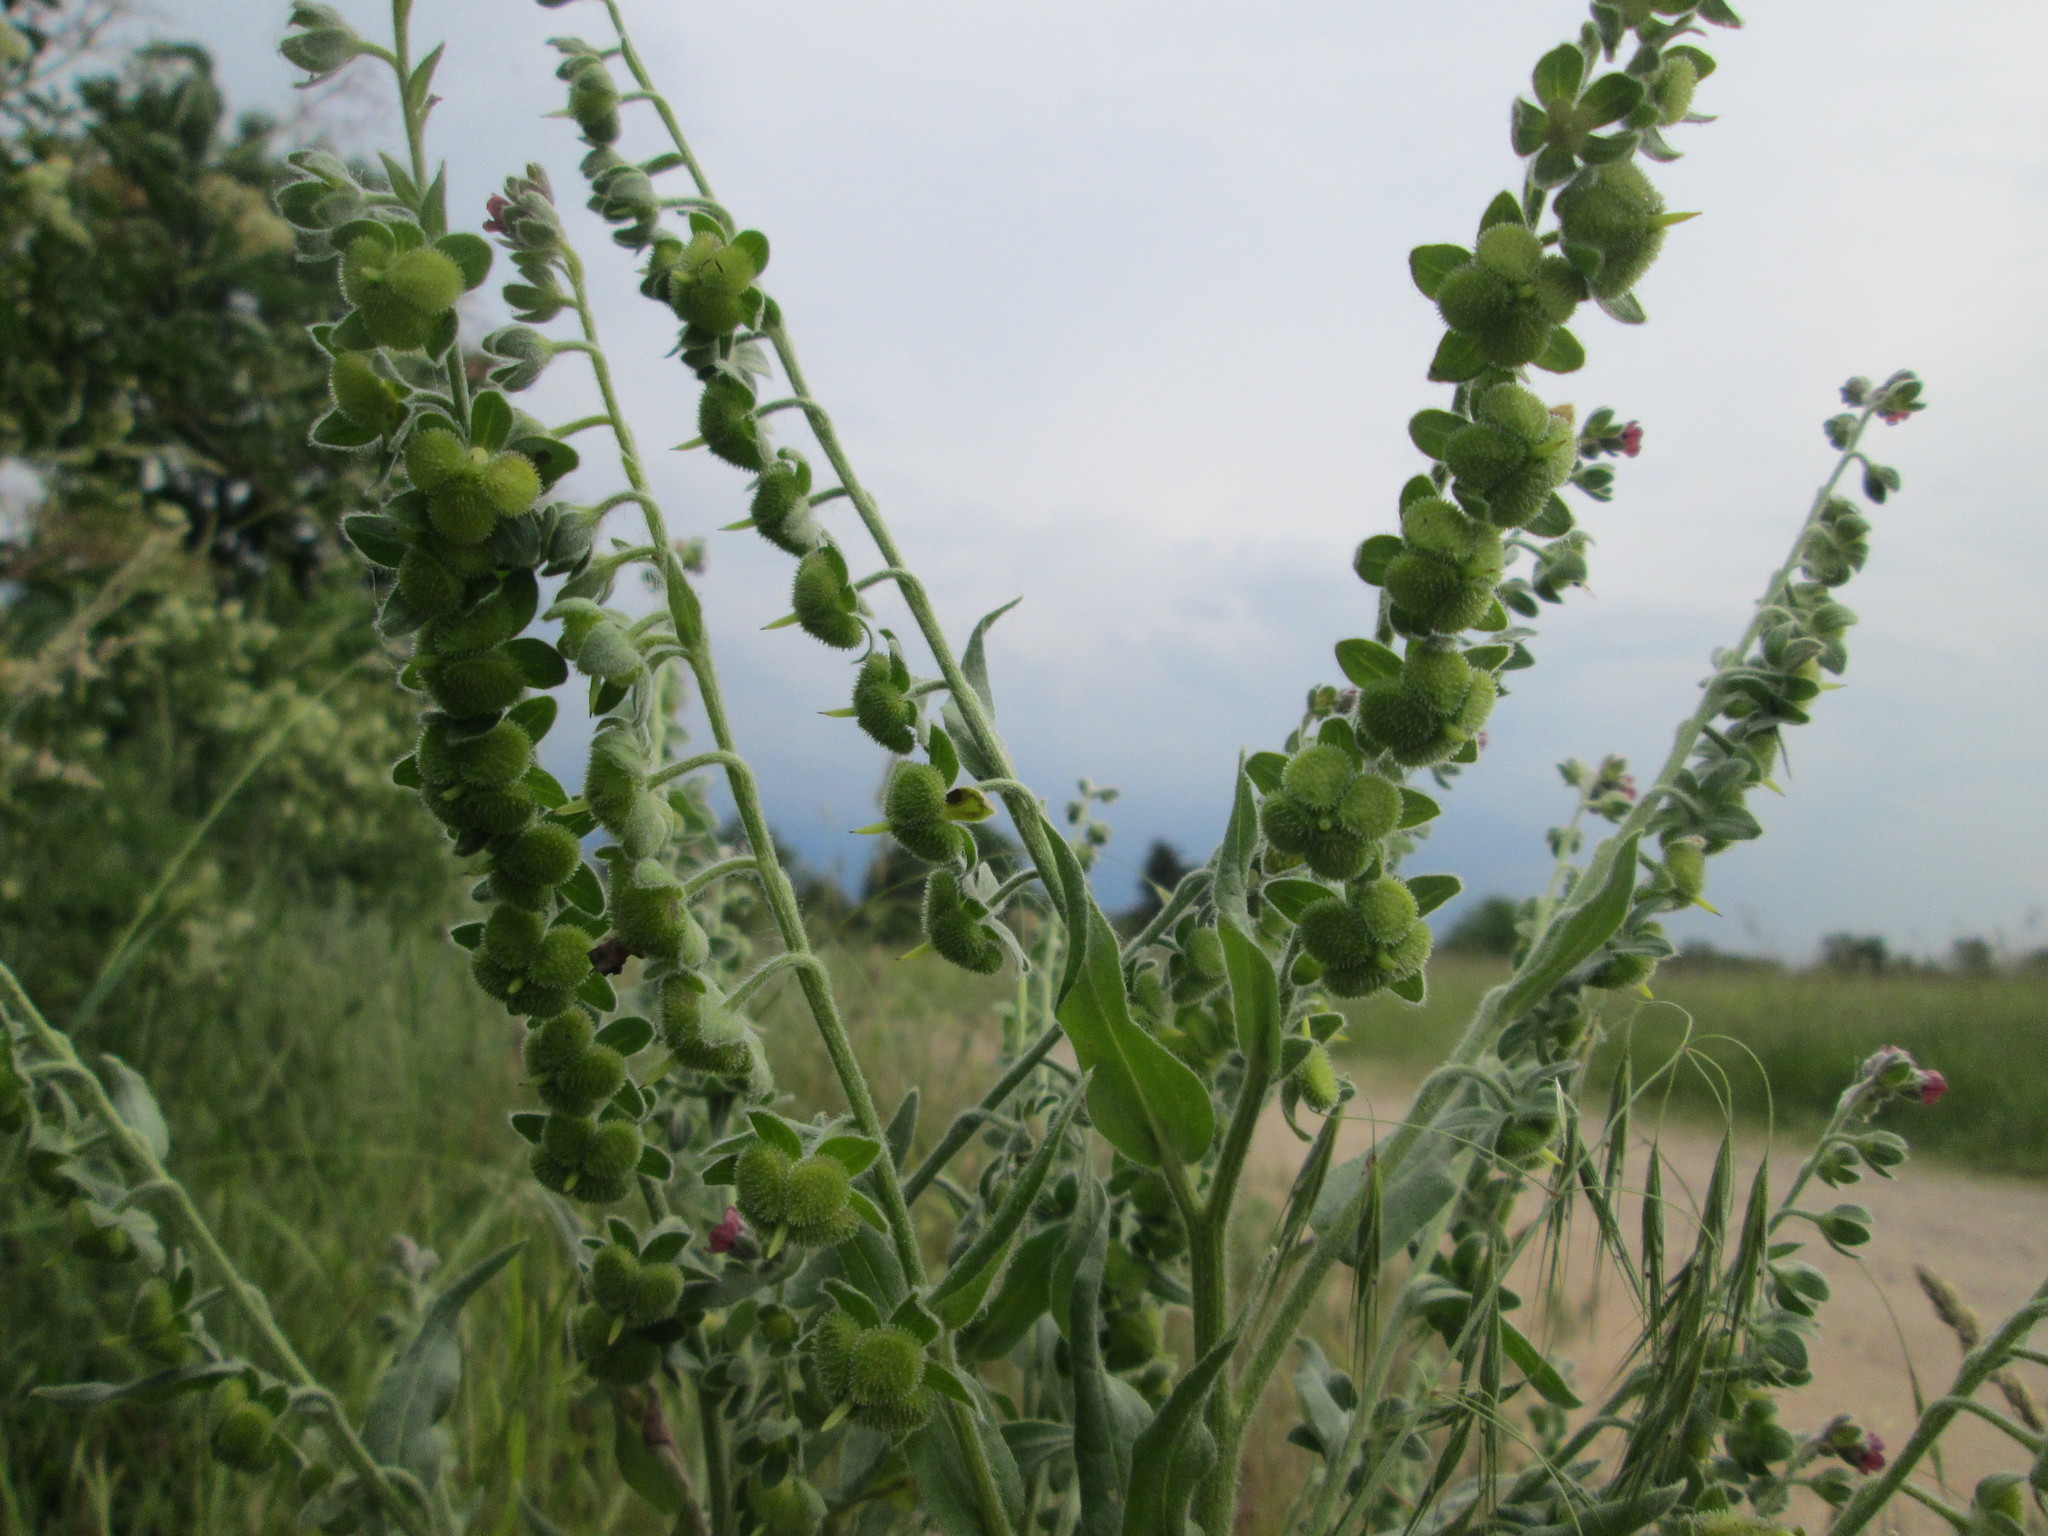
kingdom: Plantae
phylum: Tracheophyta
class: Magnoliopsida
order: Boraginales
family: Boraginaceae
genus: Cynoglossum
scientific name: Cynoglossum officinale
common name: Hound's-tongue
